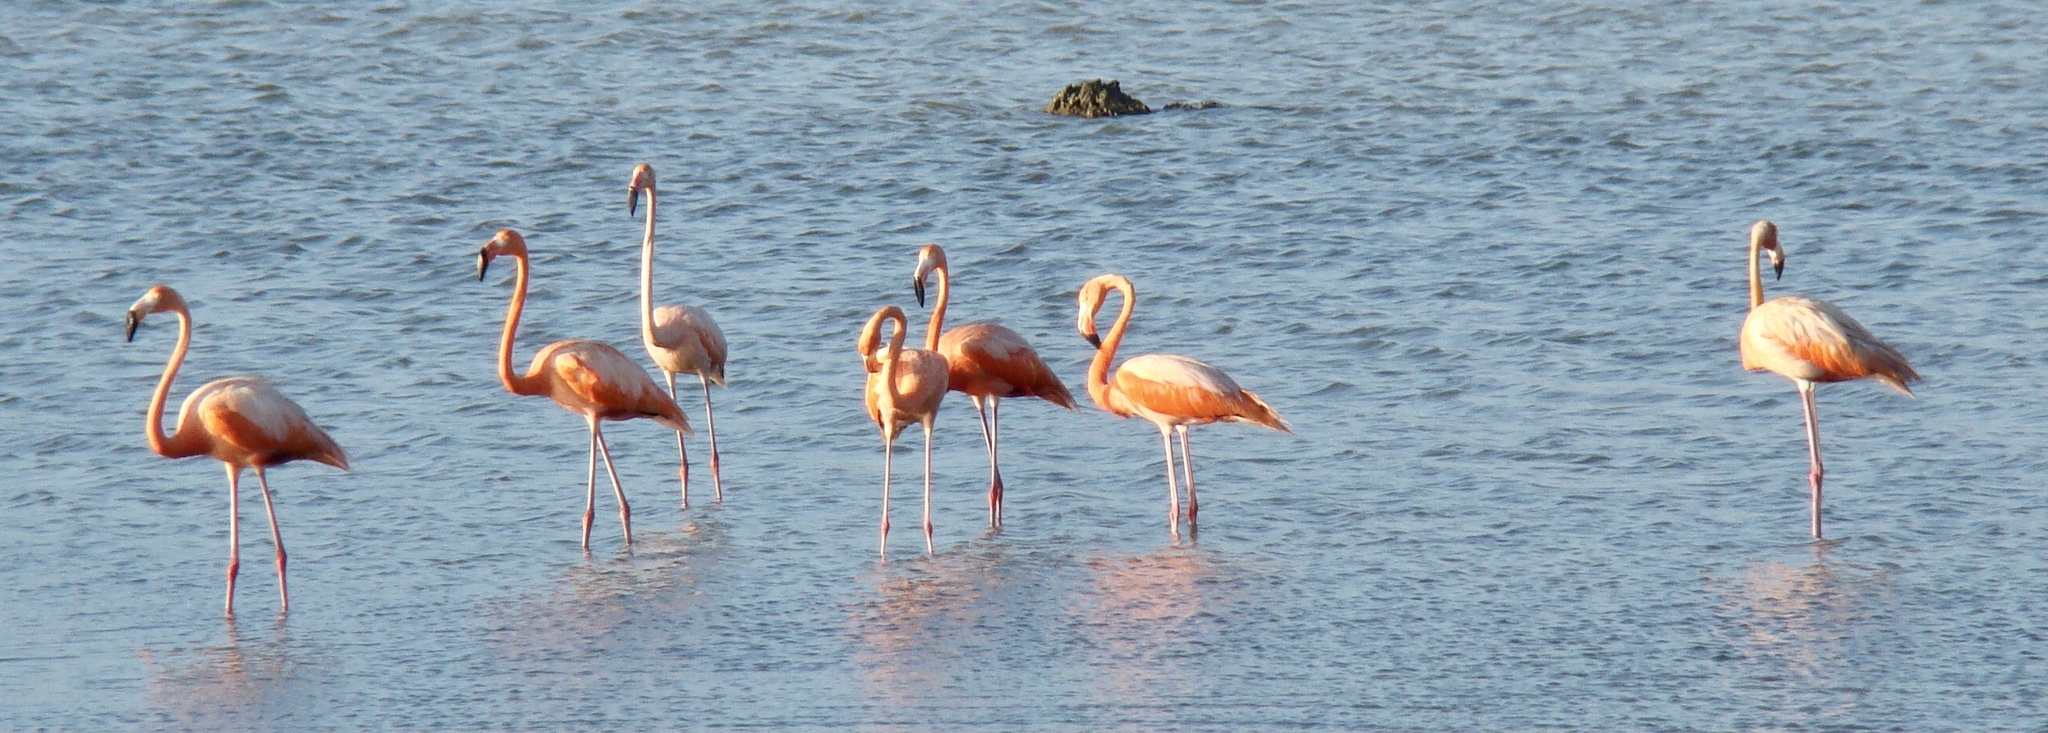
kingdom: Animalia
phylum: Chordata
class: Aves
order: Phoenicopteriformes
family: Phoenicopteridae
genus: Phoenicopterus
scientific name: Phoenicopterus ruber
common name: American flamingo
